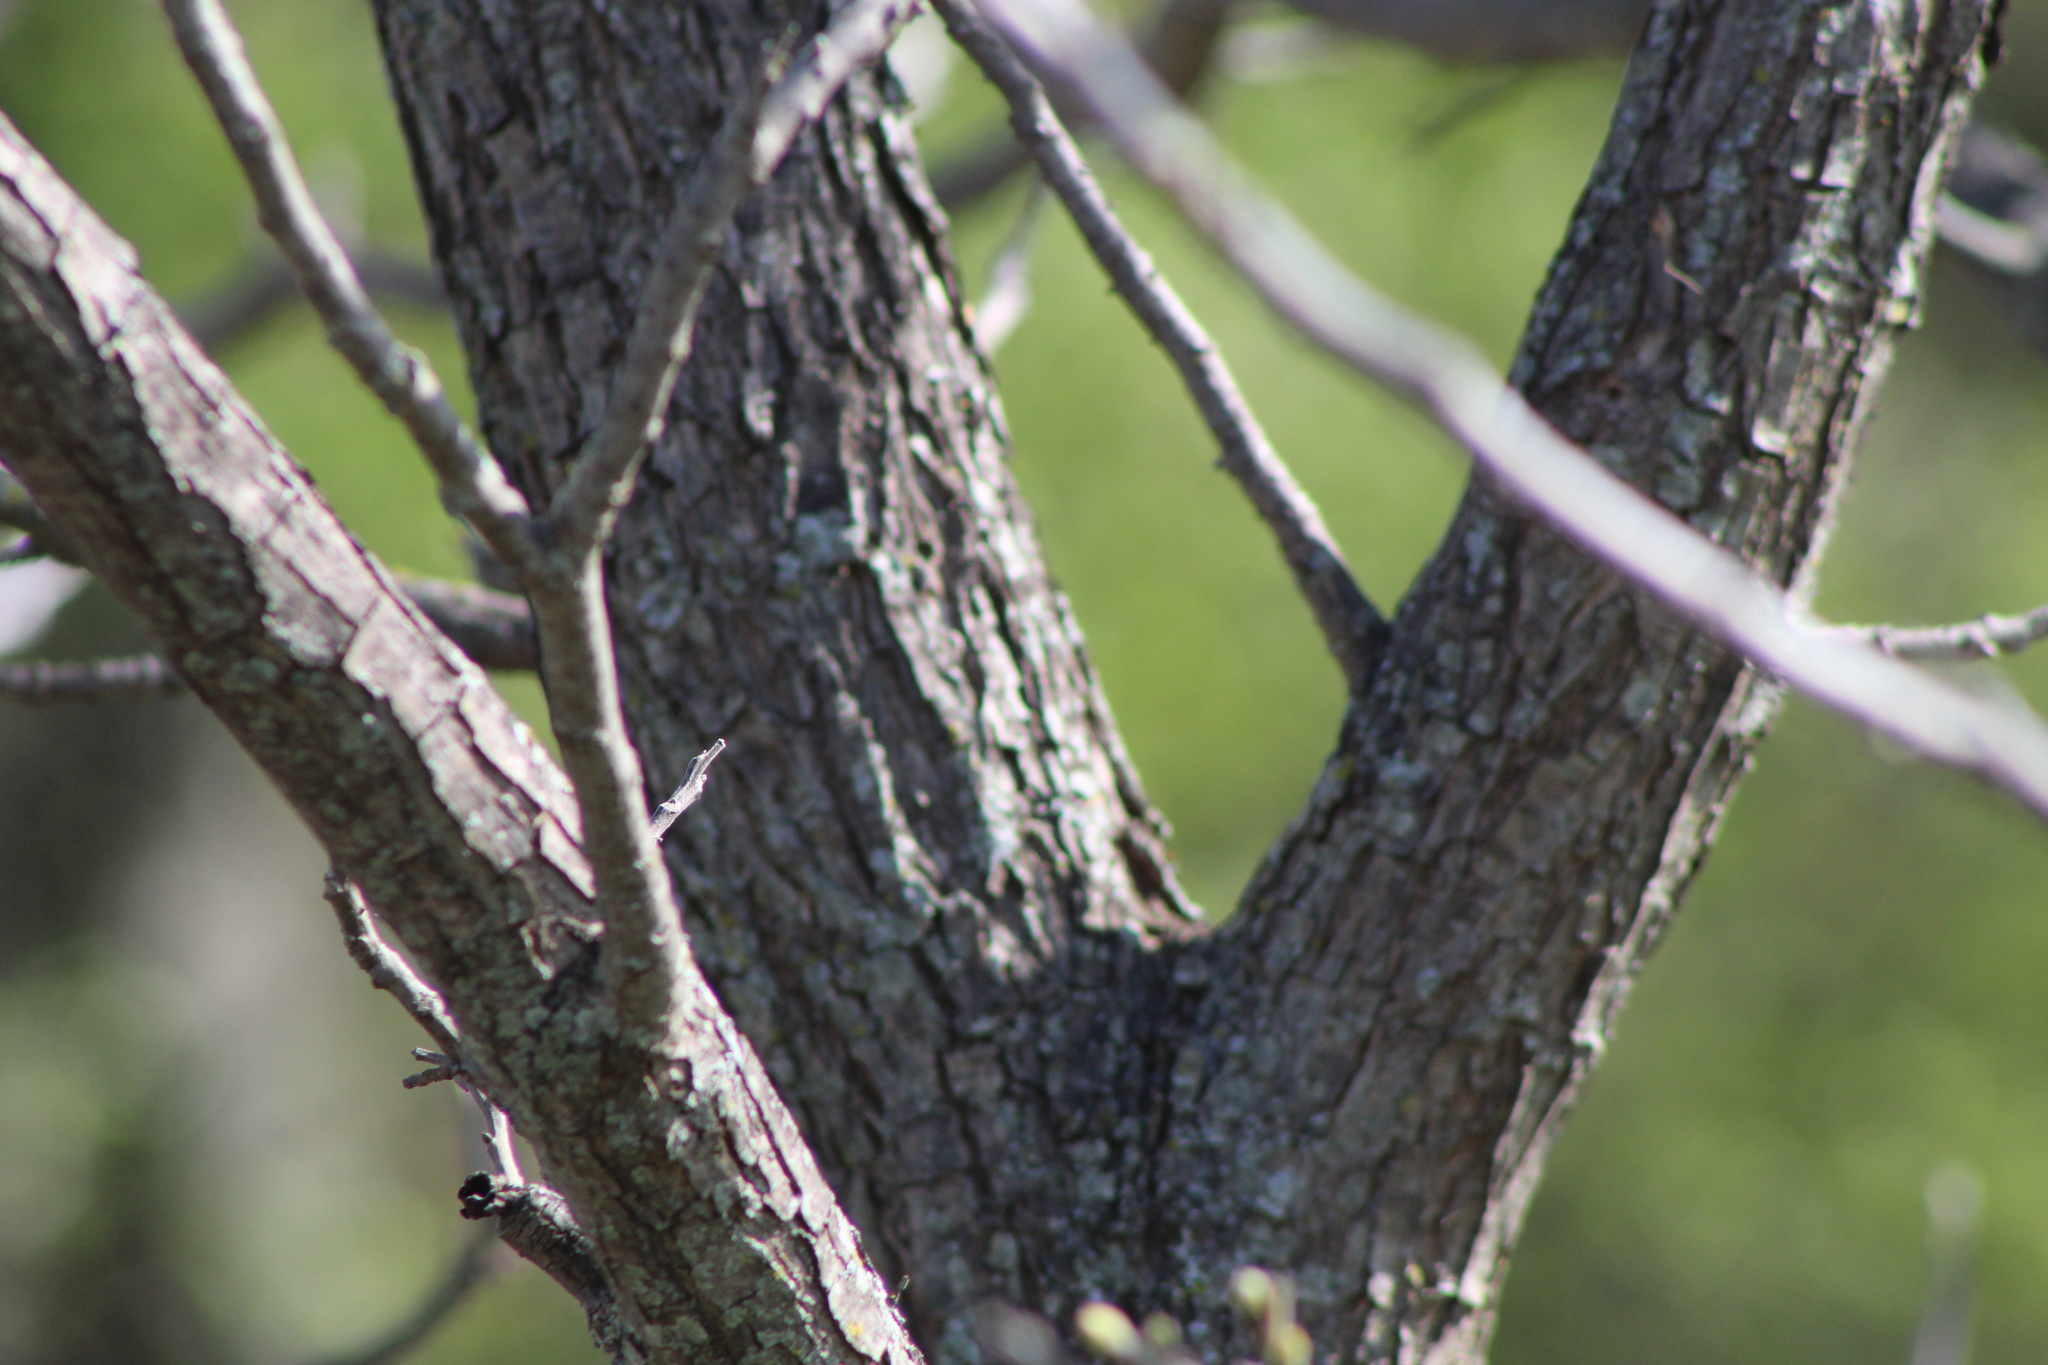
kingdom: Plantae
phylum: Tracheophyta
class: Magnoliopsida
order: Fagales
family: Juglandaceae
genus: Carya
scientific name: Carya illinoinensis
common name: Pecan
